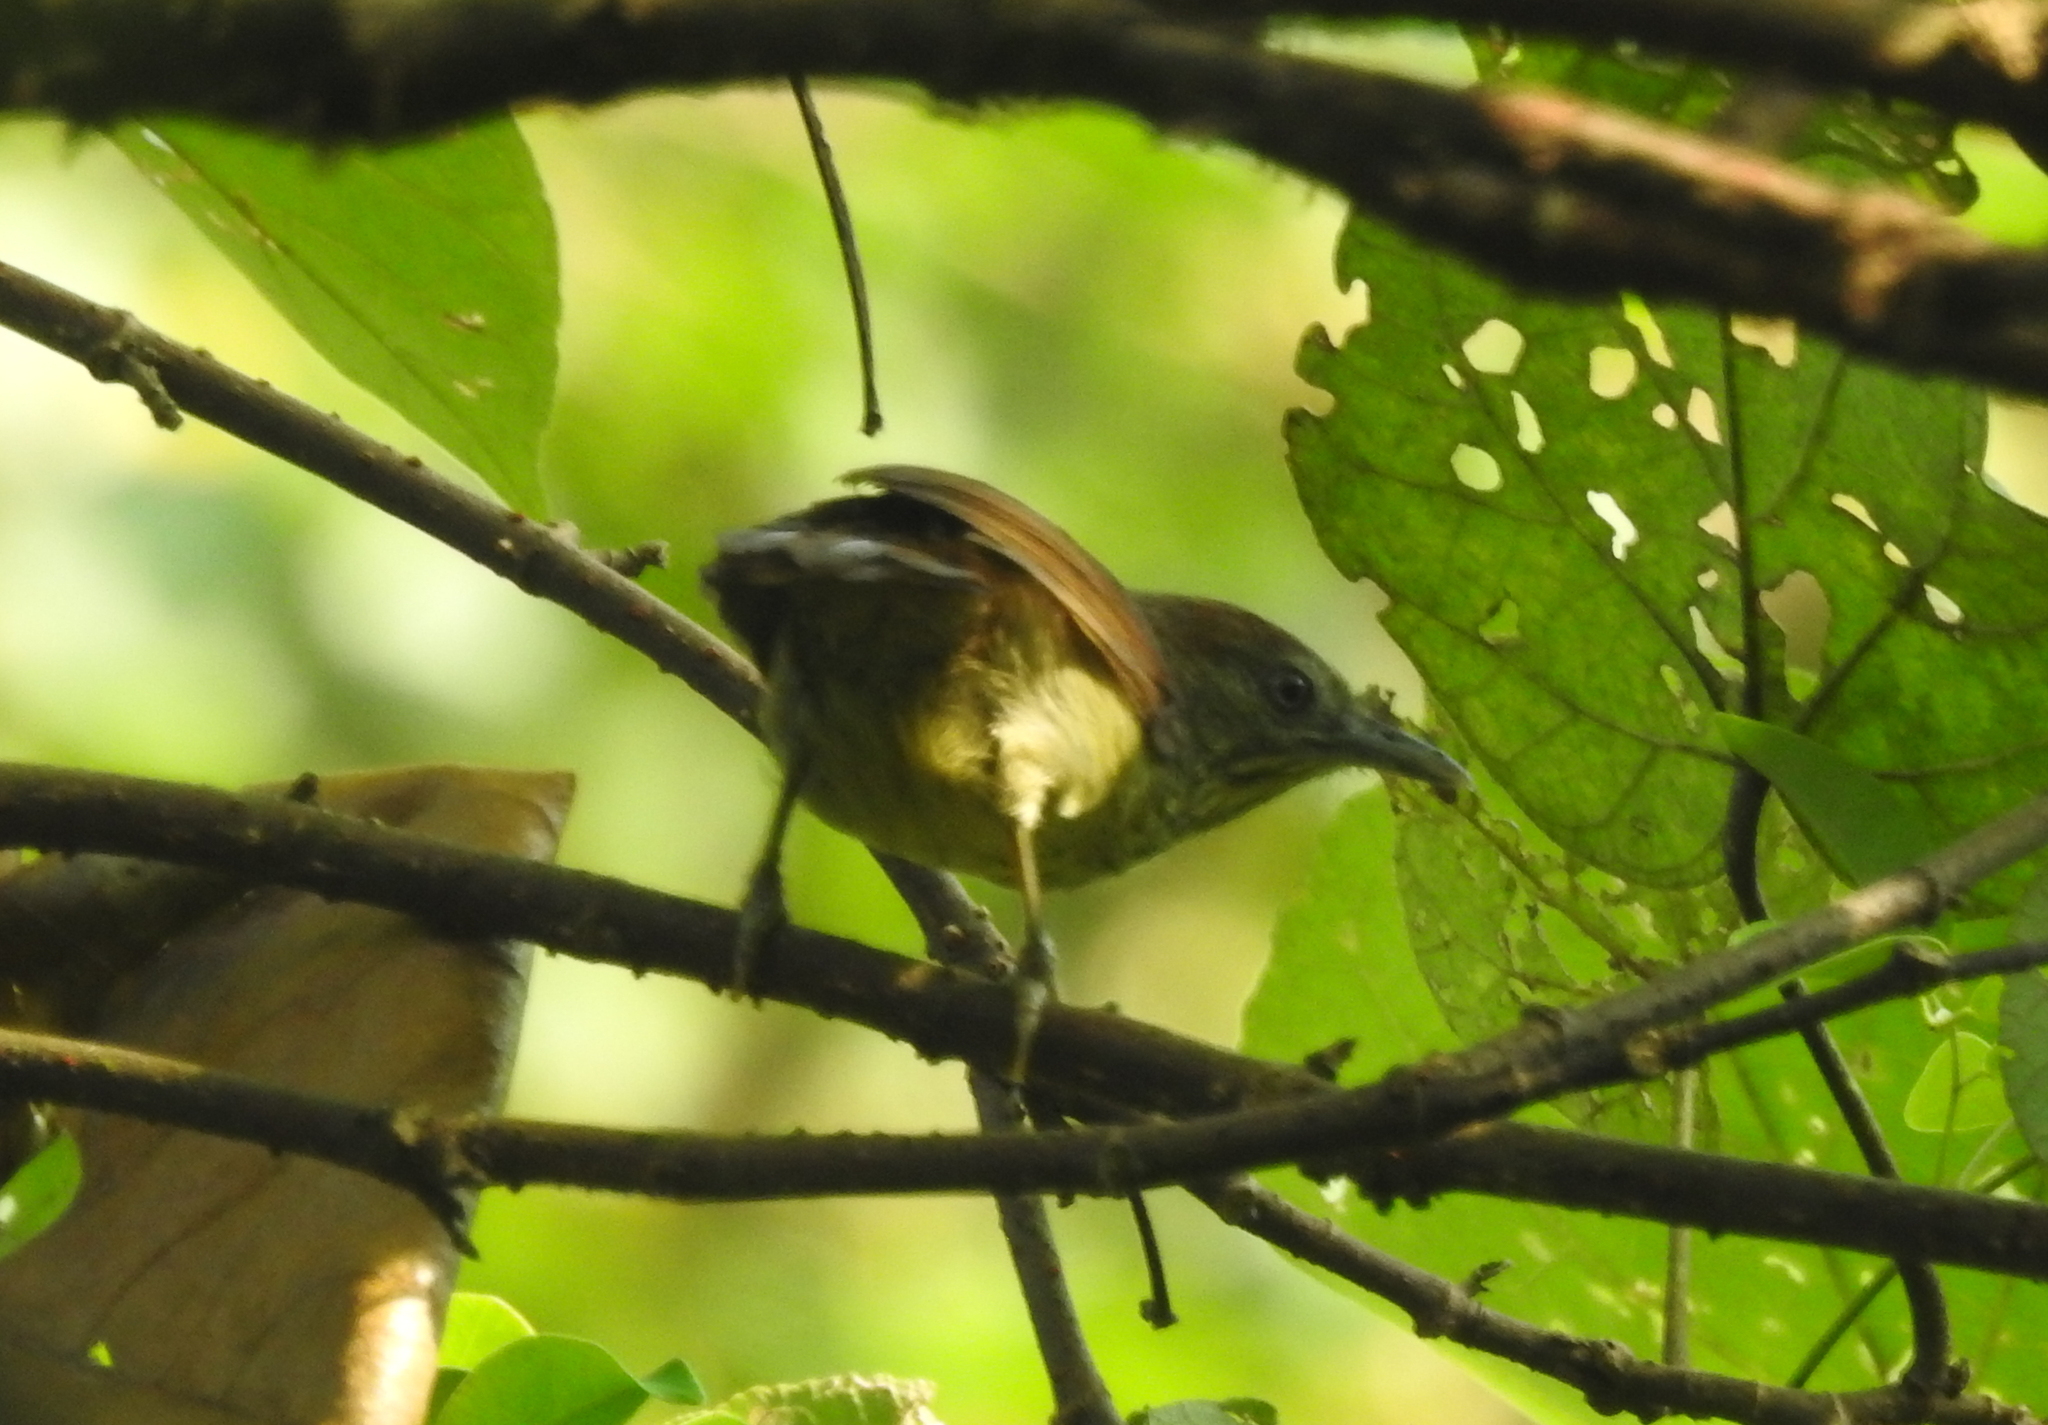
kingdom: Animalia
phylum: Chordata
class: Aves
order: Passeriformes
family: Timaliidae
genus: Macronus
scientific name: Macronus gularis
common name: Striped tit-babbler
